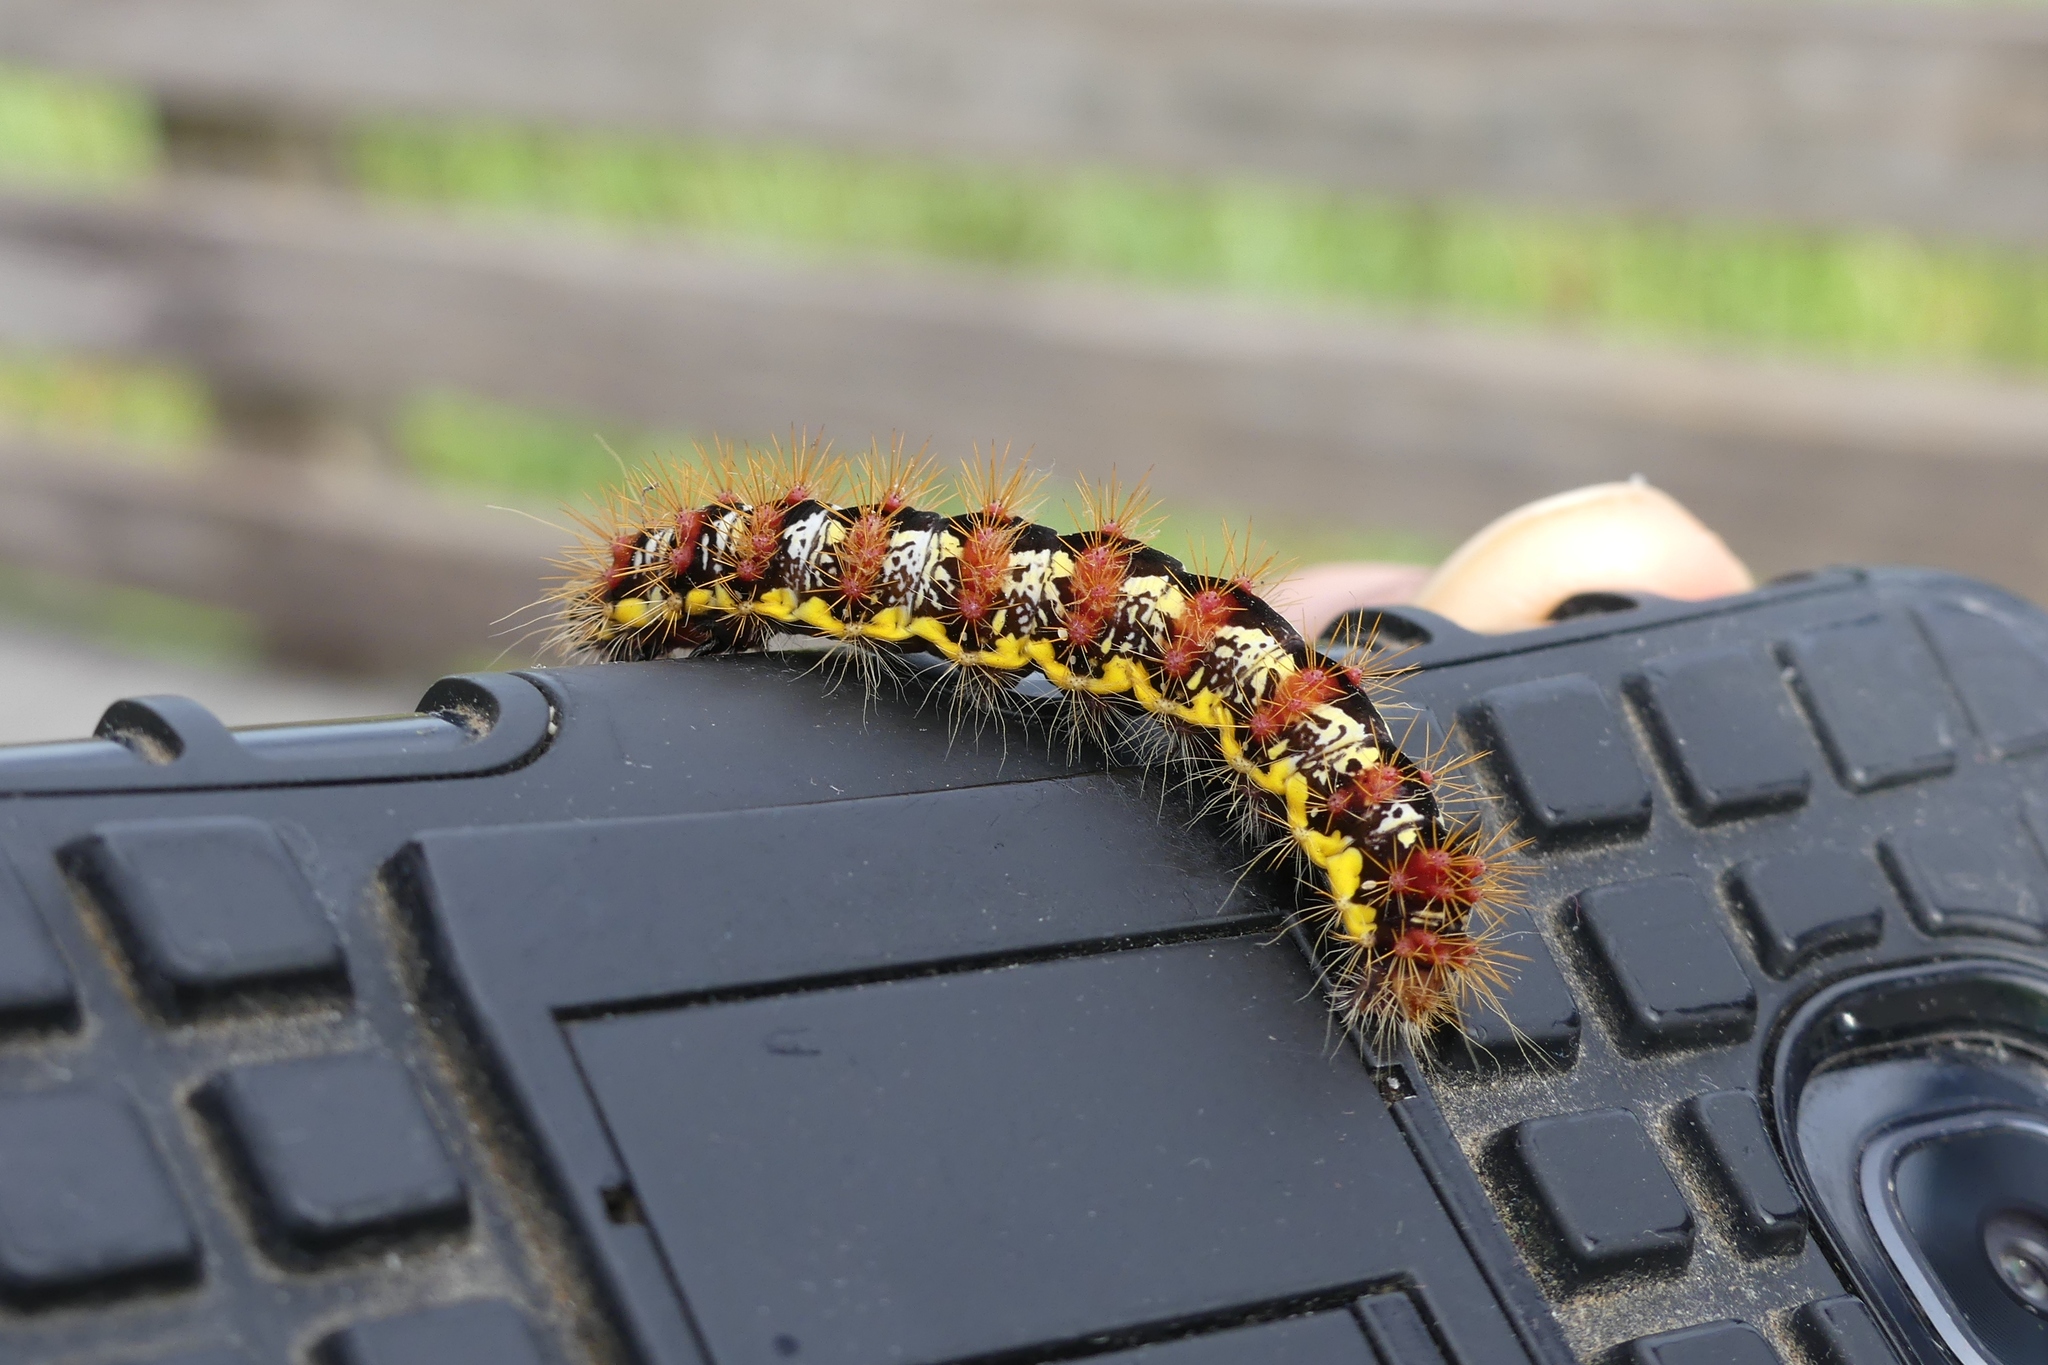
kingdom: Animalia
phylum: Arthropoda
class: Insecta
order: Lepidoptera
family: Noctuidae
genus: Acronicta
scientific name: Acronicta oblinita
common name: Smeared dagger
